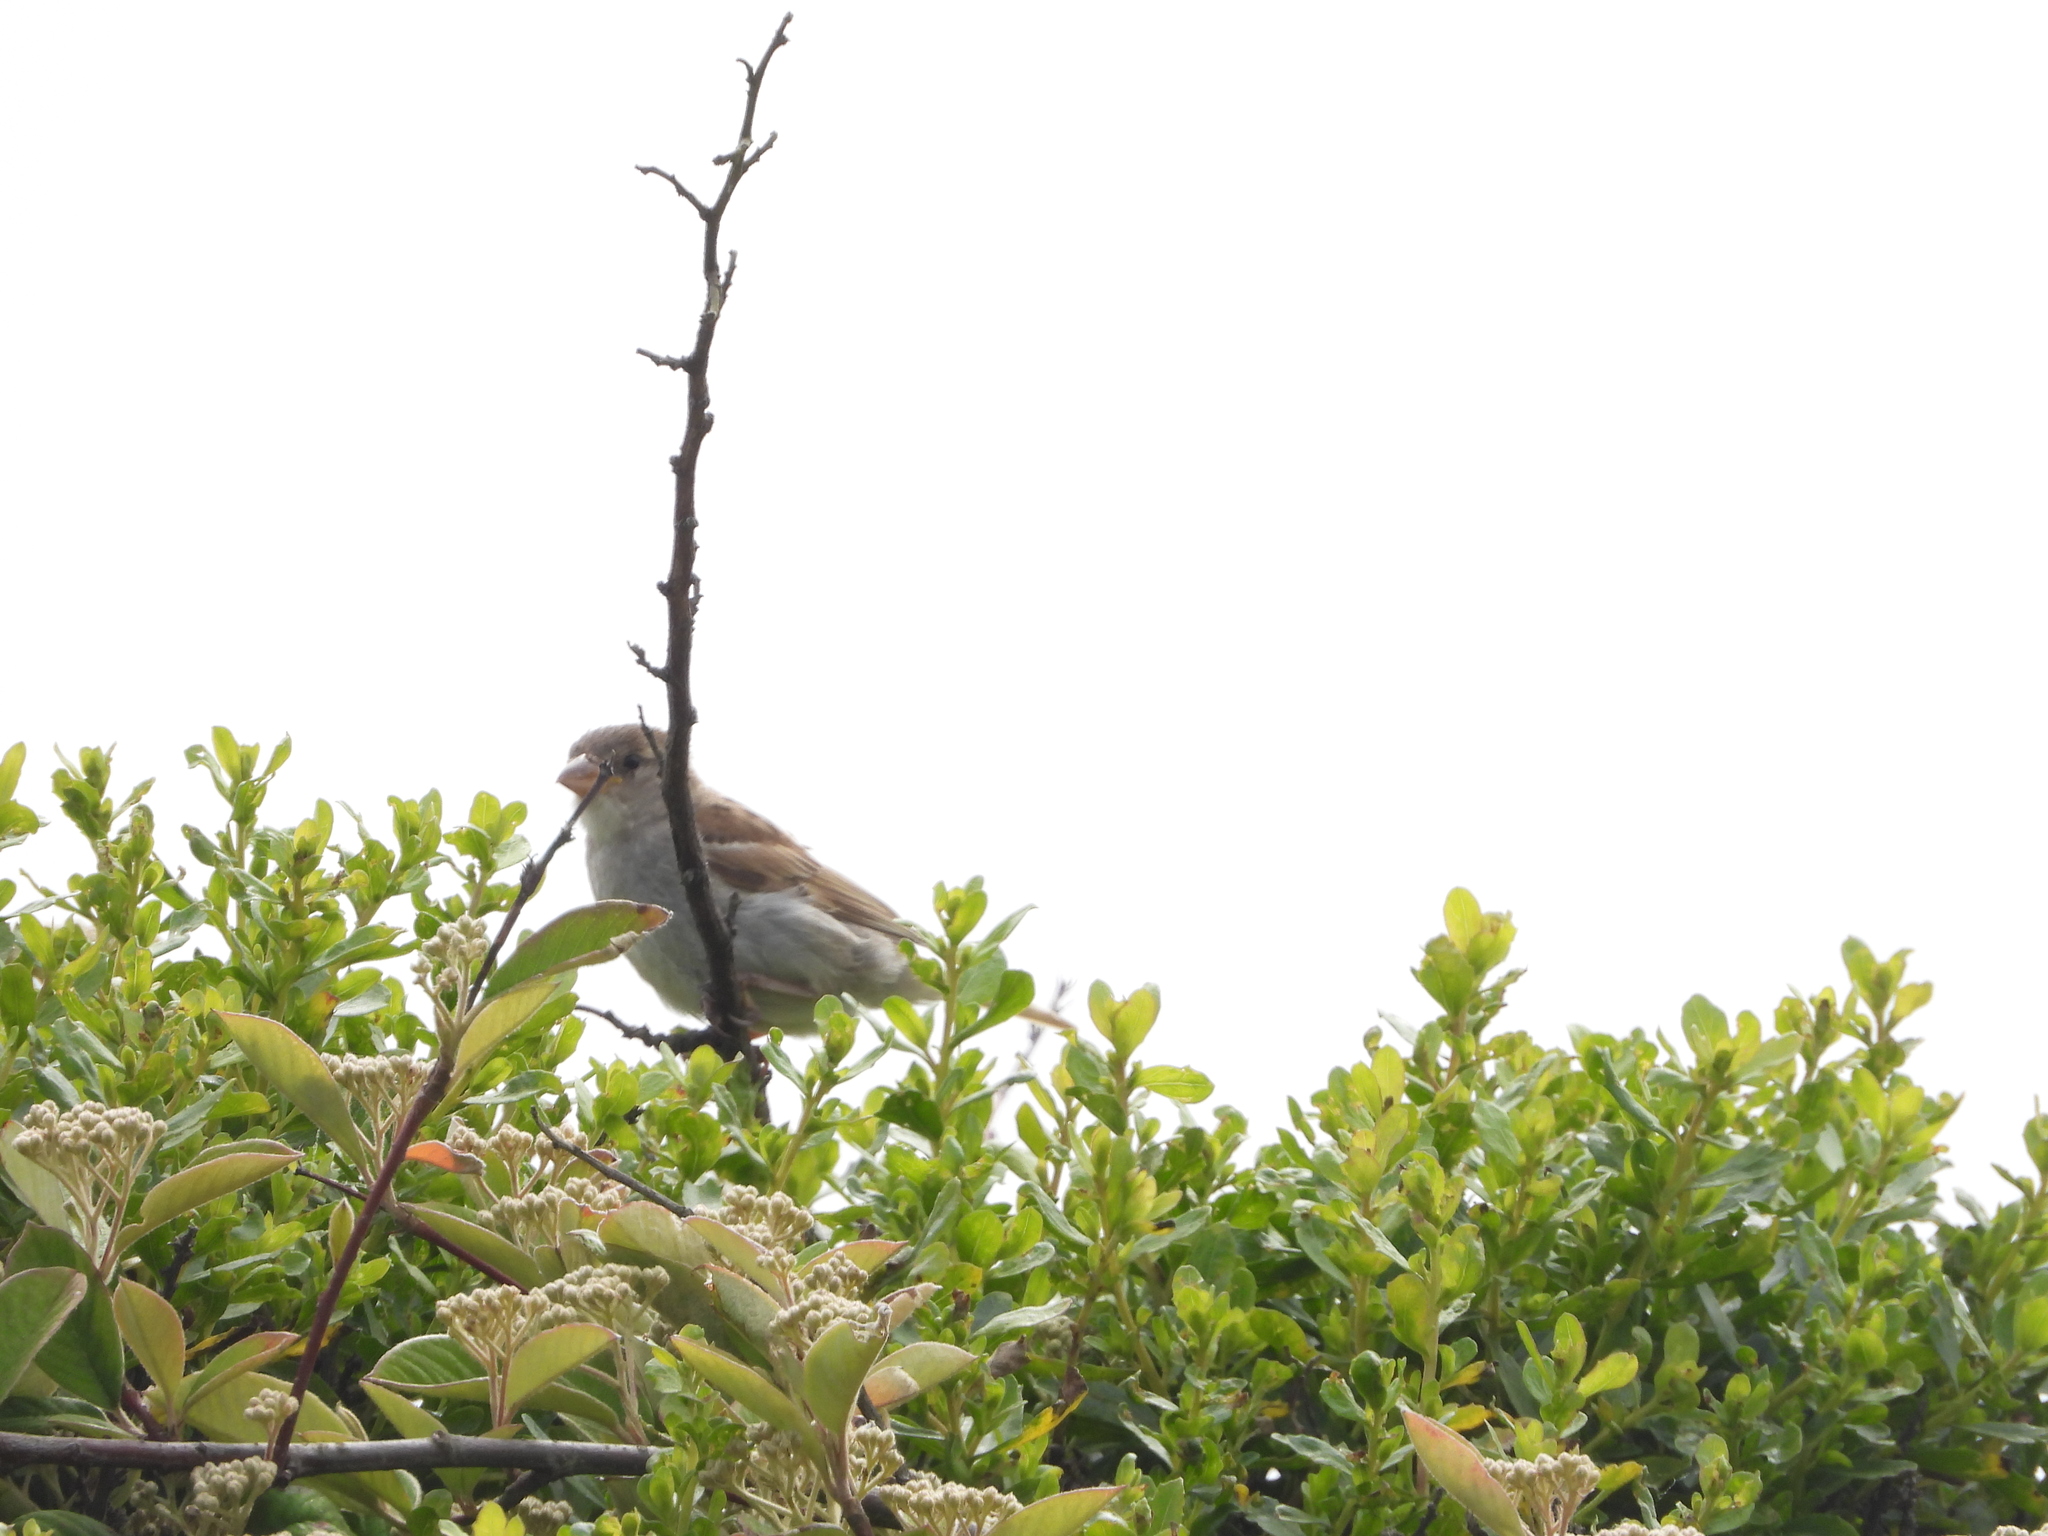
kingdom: Animalia
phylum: Chordata
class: Aves
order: Passeriformes
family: Passeridae
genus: Passer
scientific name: Passer domesticus
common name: House sparrow
